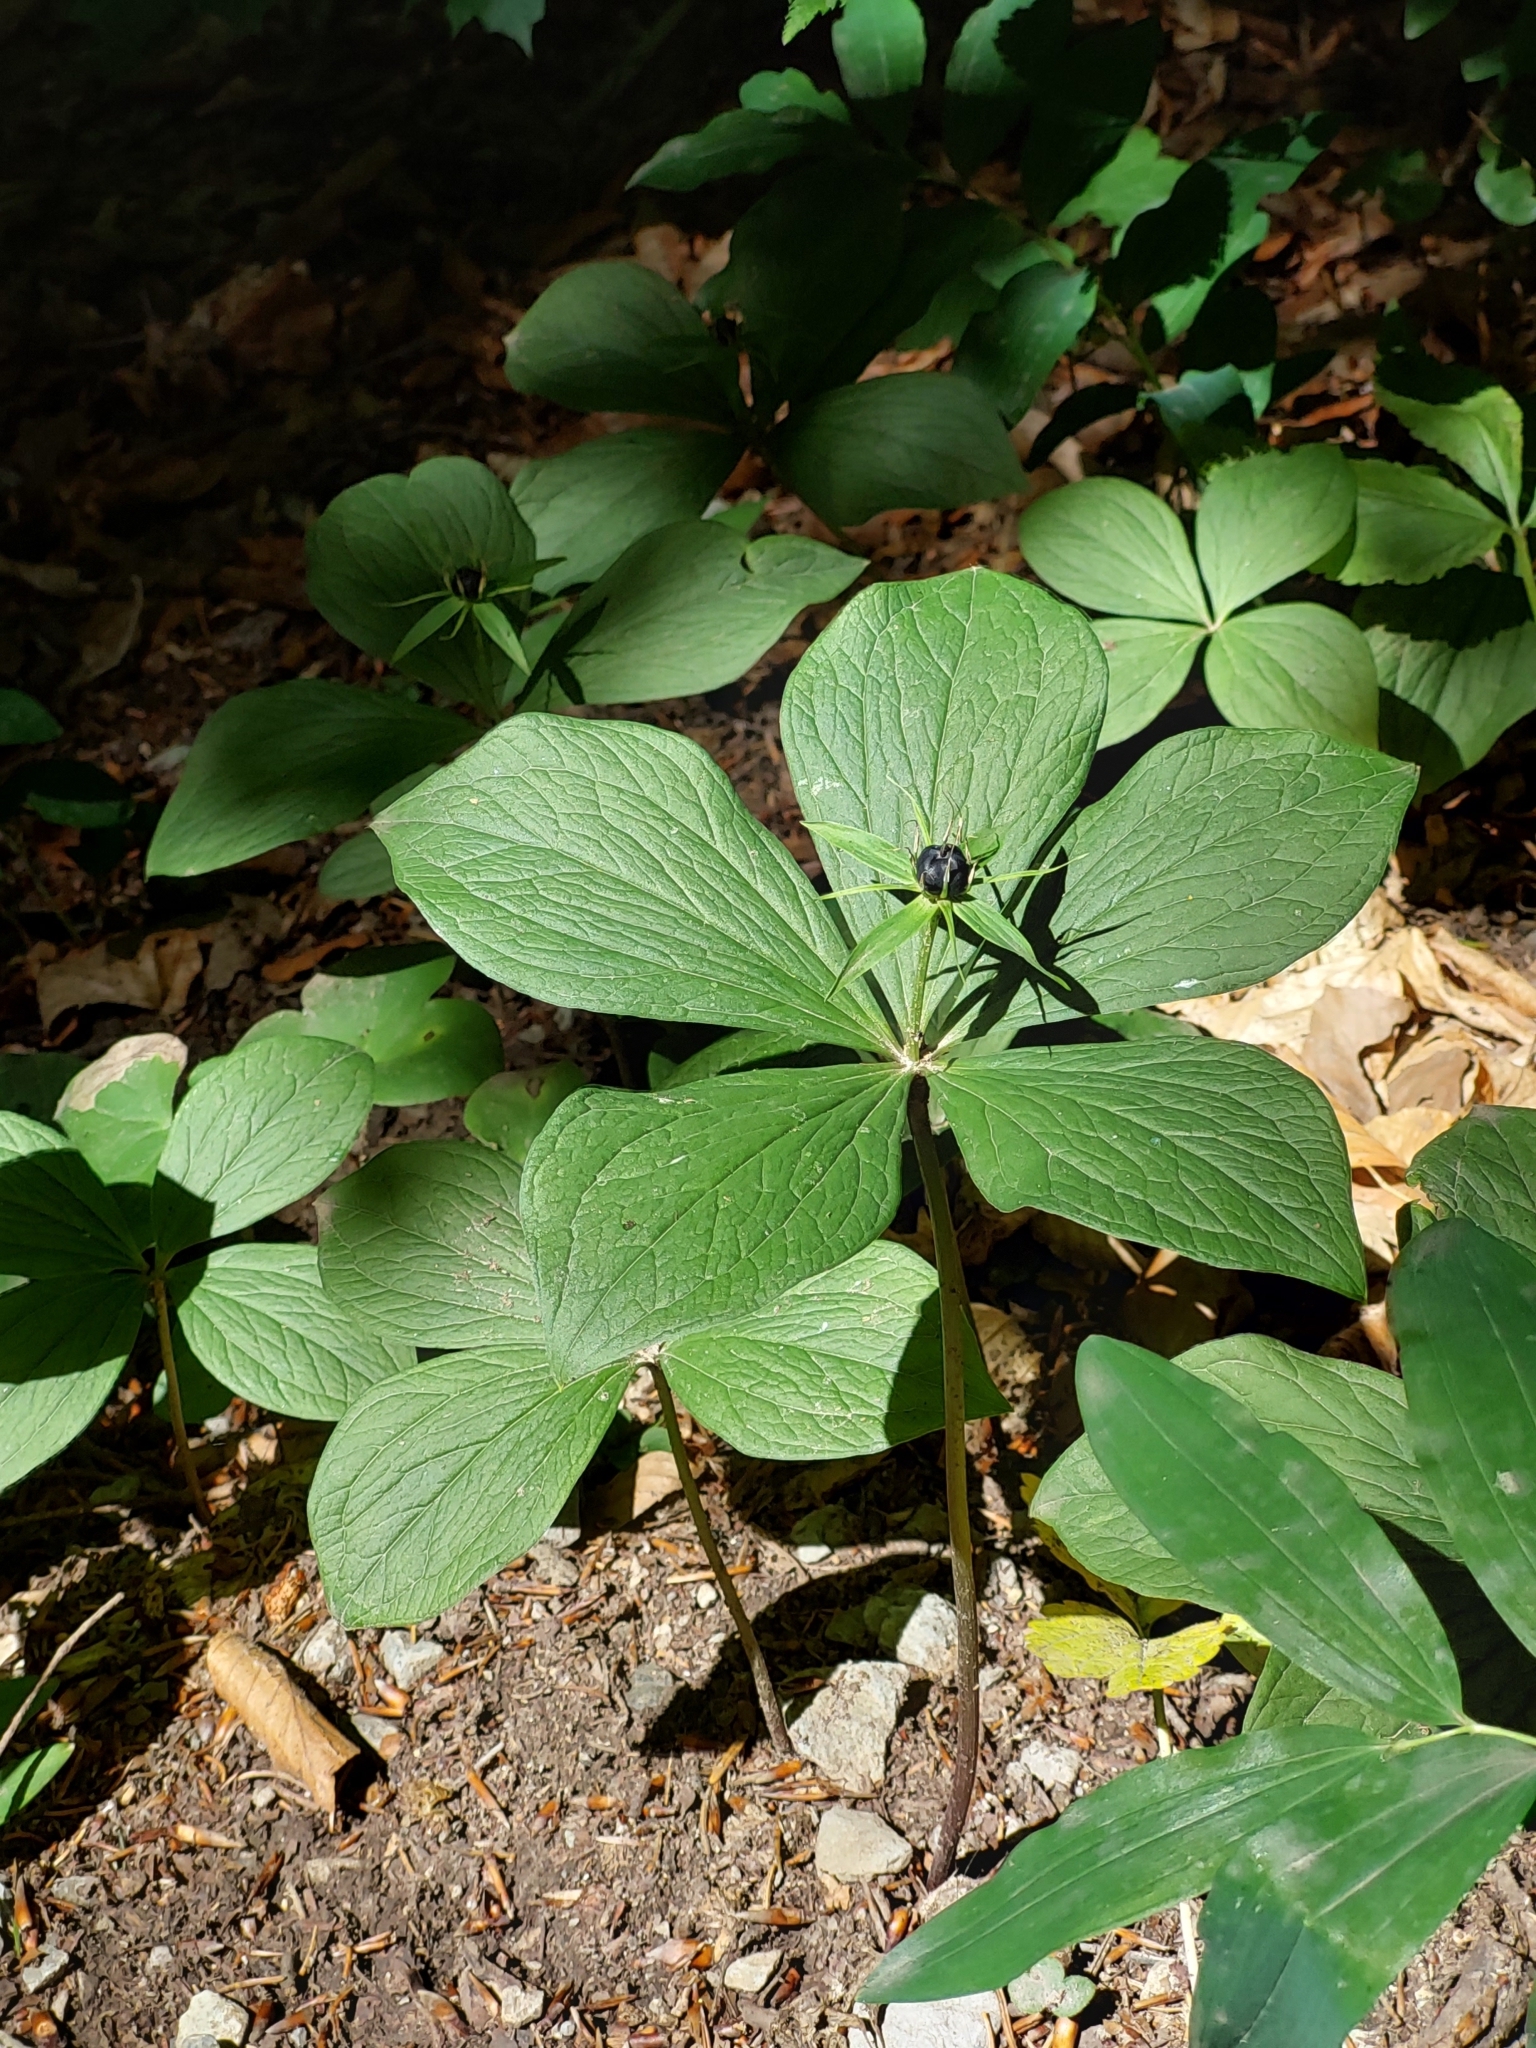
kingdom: Plantae
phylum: Tracheophyta
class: Liliopsida
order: Liliales
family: Melanthiaceae
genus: Paris
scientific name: Paris quadrifolia
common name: Herb-paris
